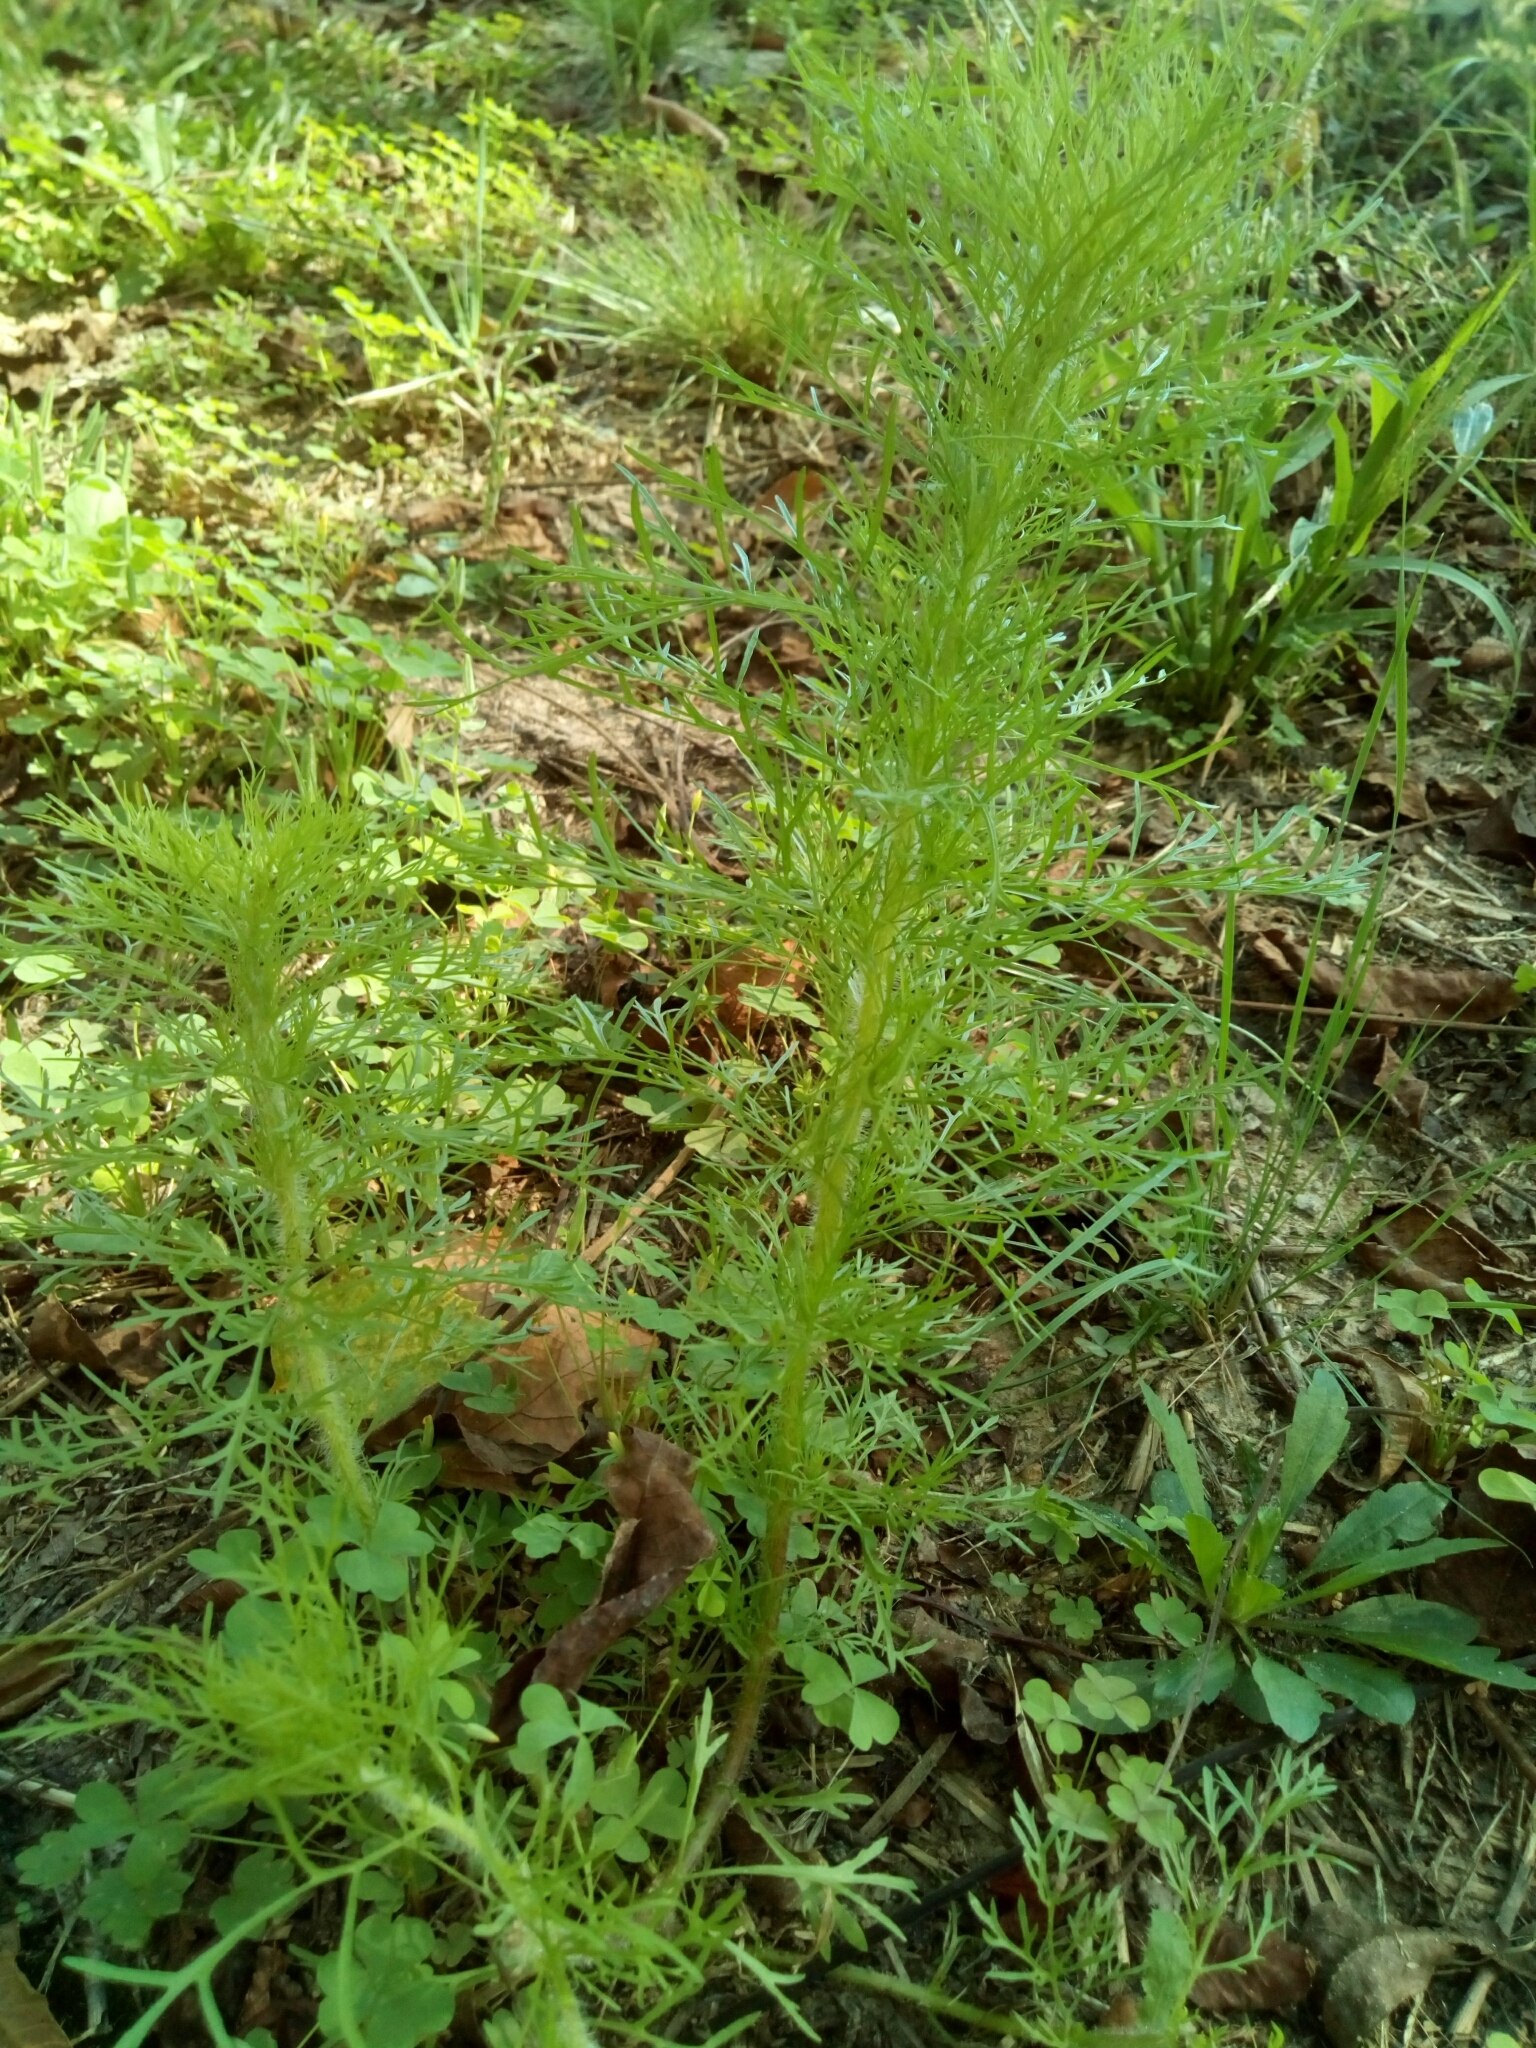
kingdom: Plantae
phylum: Tracheophyta
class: Magnoliopsida
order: Asterales
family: Asteraceae
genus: Eupatorium
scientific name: Eupatorium capillifolium
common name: Dog-fennel
